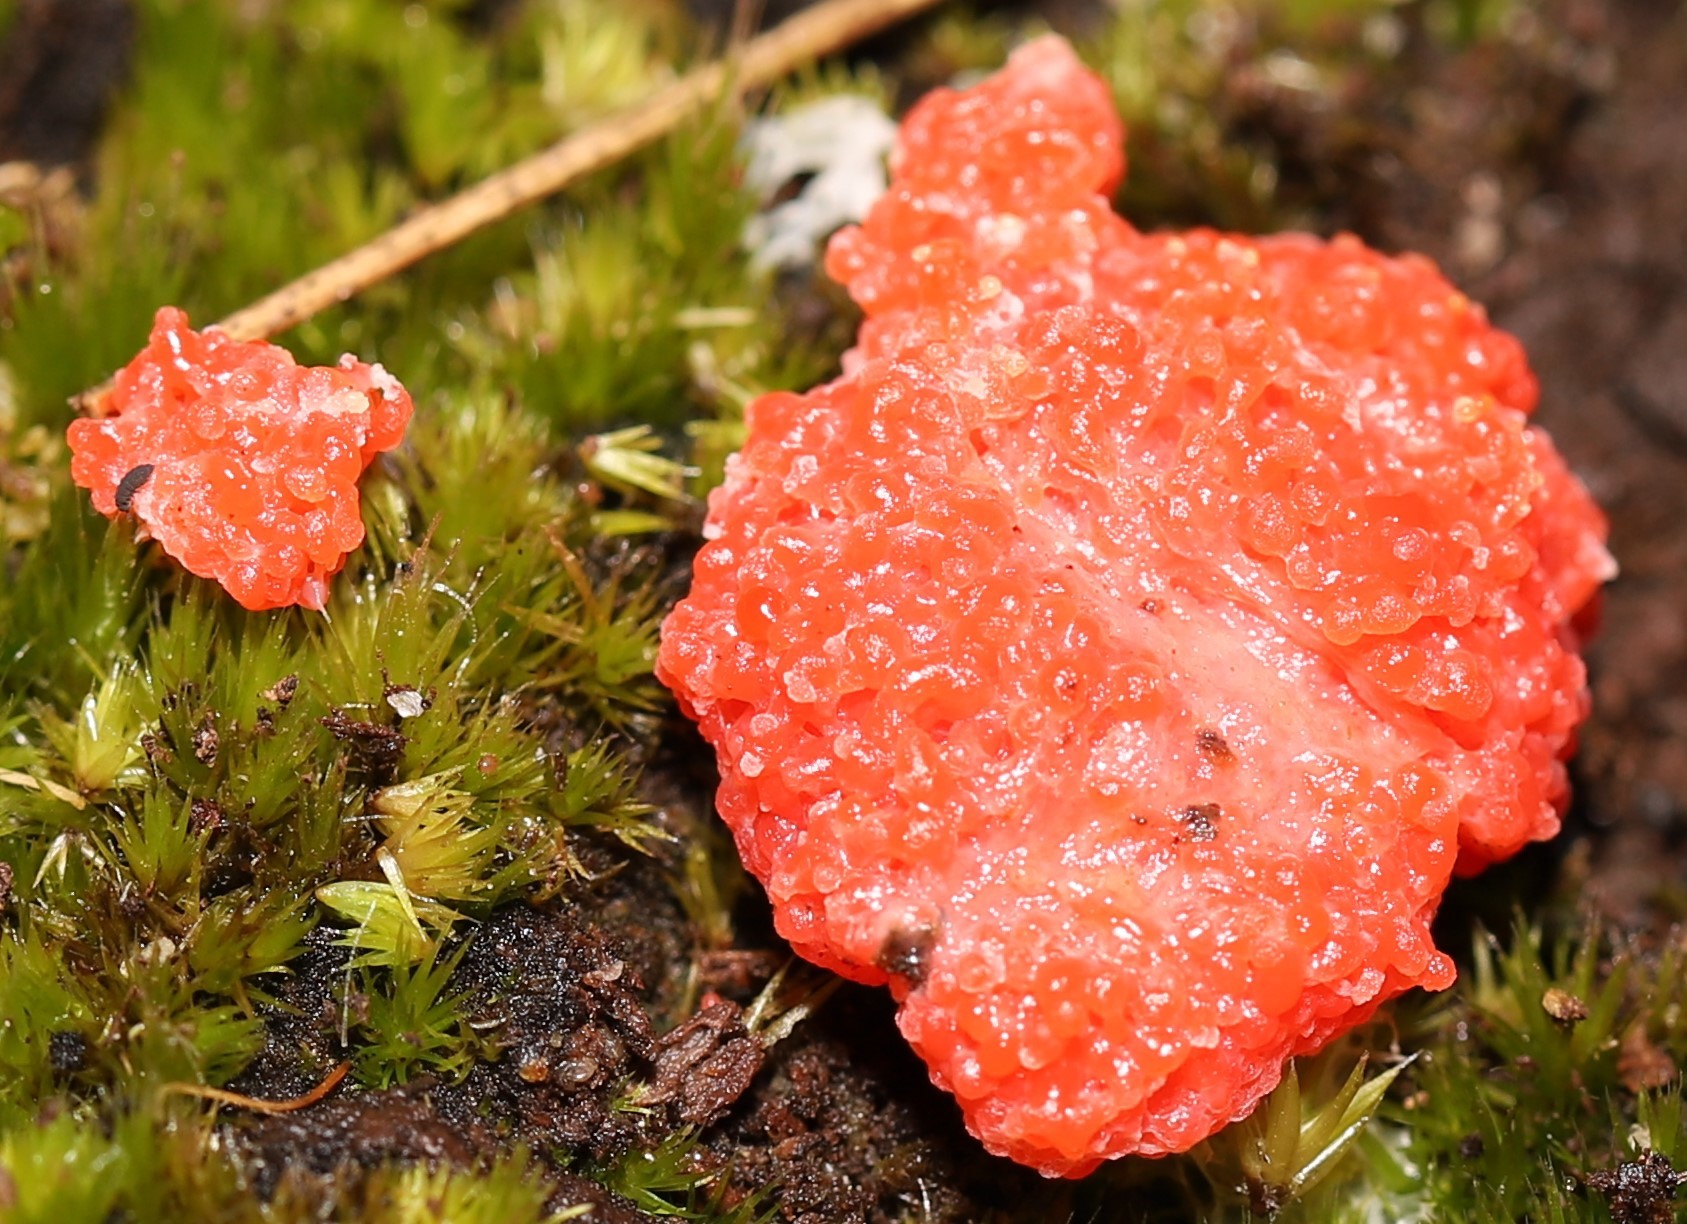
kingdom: Protozoa
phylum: Mycetozoa
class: Myxomycetes
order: Cribrariales
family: Tubiferaceae
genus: Tubifera
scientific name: Tubifera ferruginosa
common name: Red raspberry slime mold
